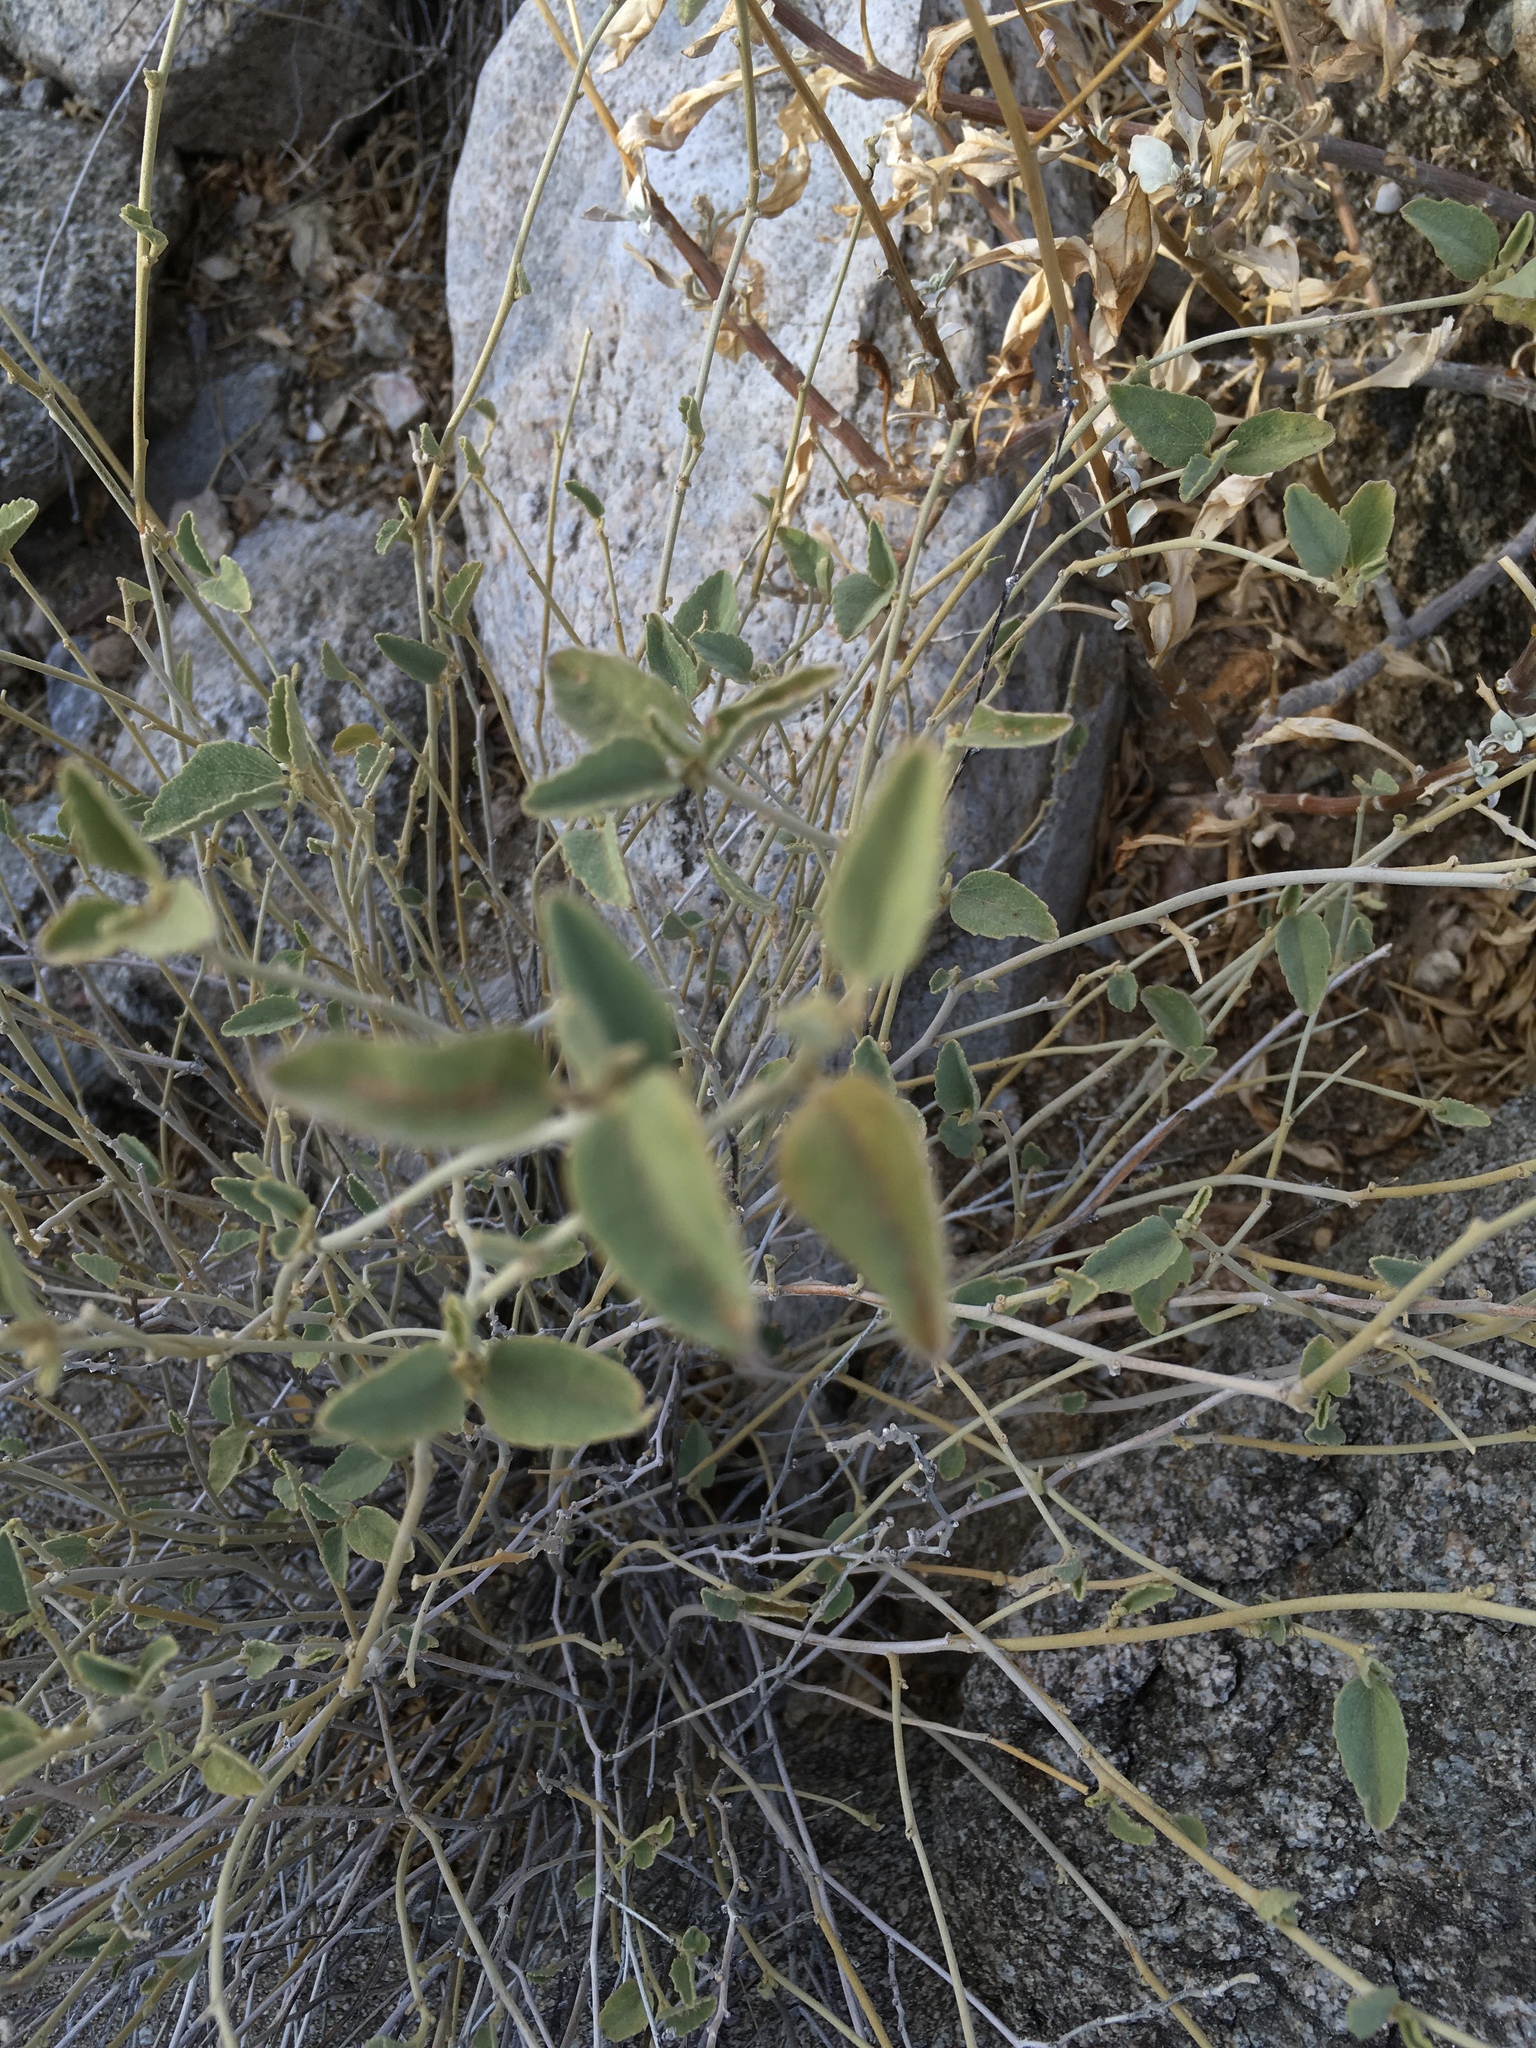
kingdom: Plantae
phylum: Tracheophyta
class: Magnoliopsida
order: Malvales
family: Malvaceae
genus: Hibiscus
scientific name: Hibiscus denudatus
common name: Paleface
